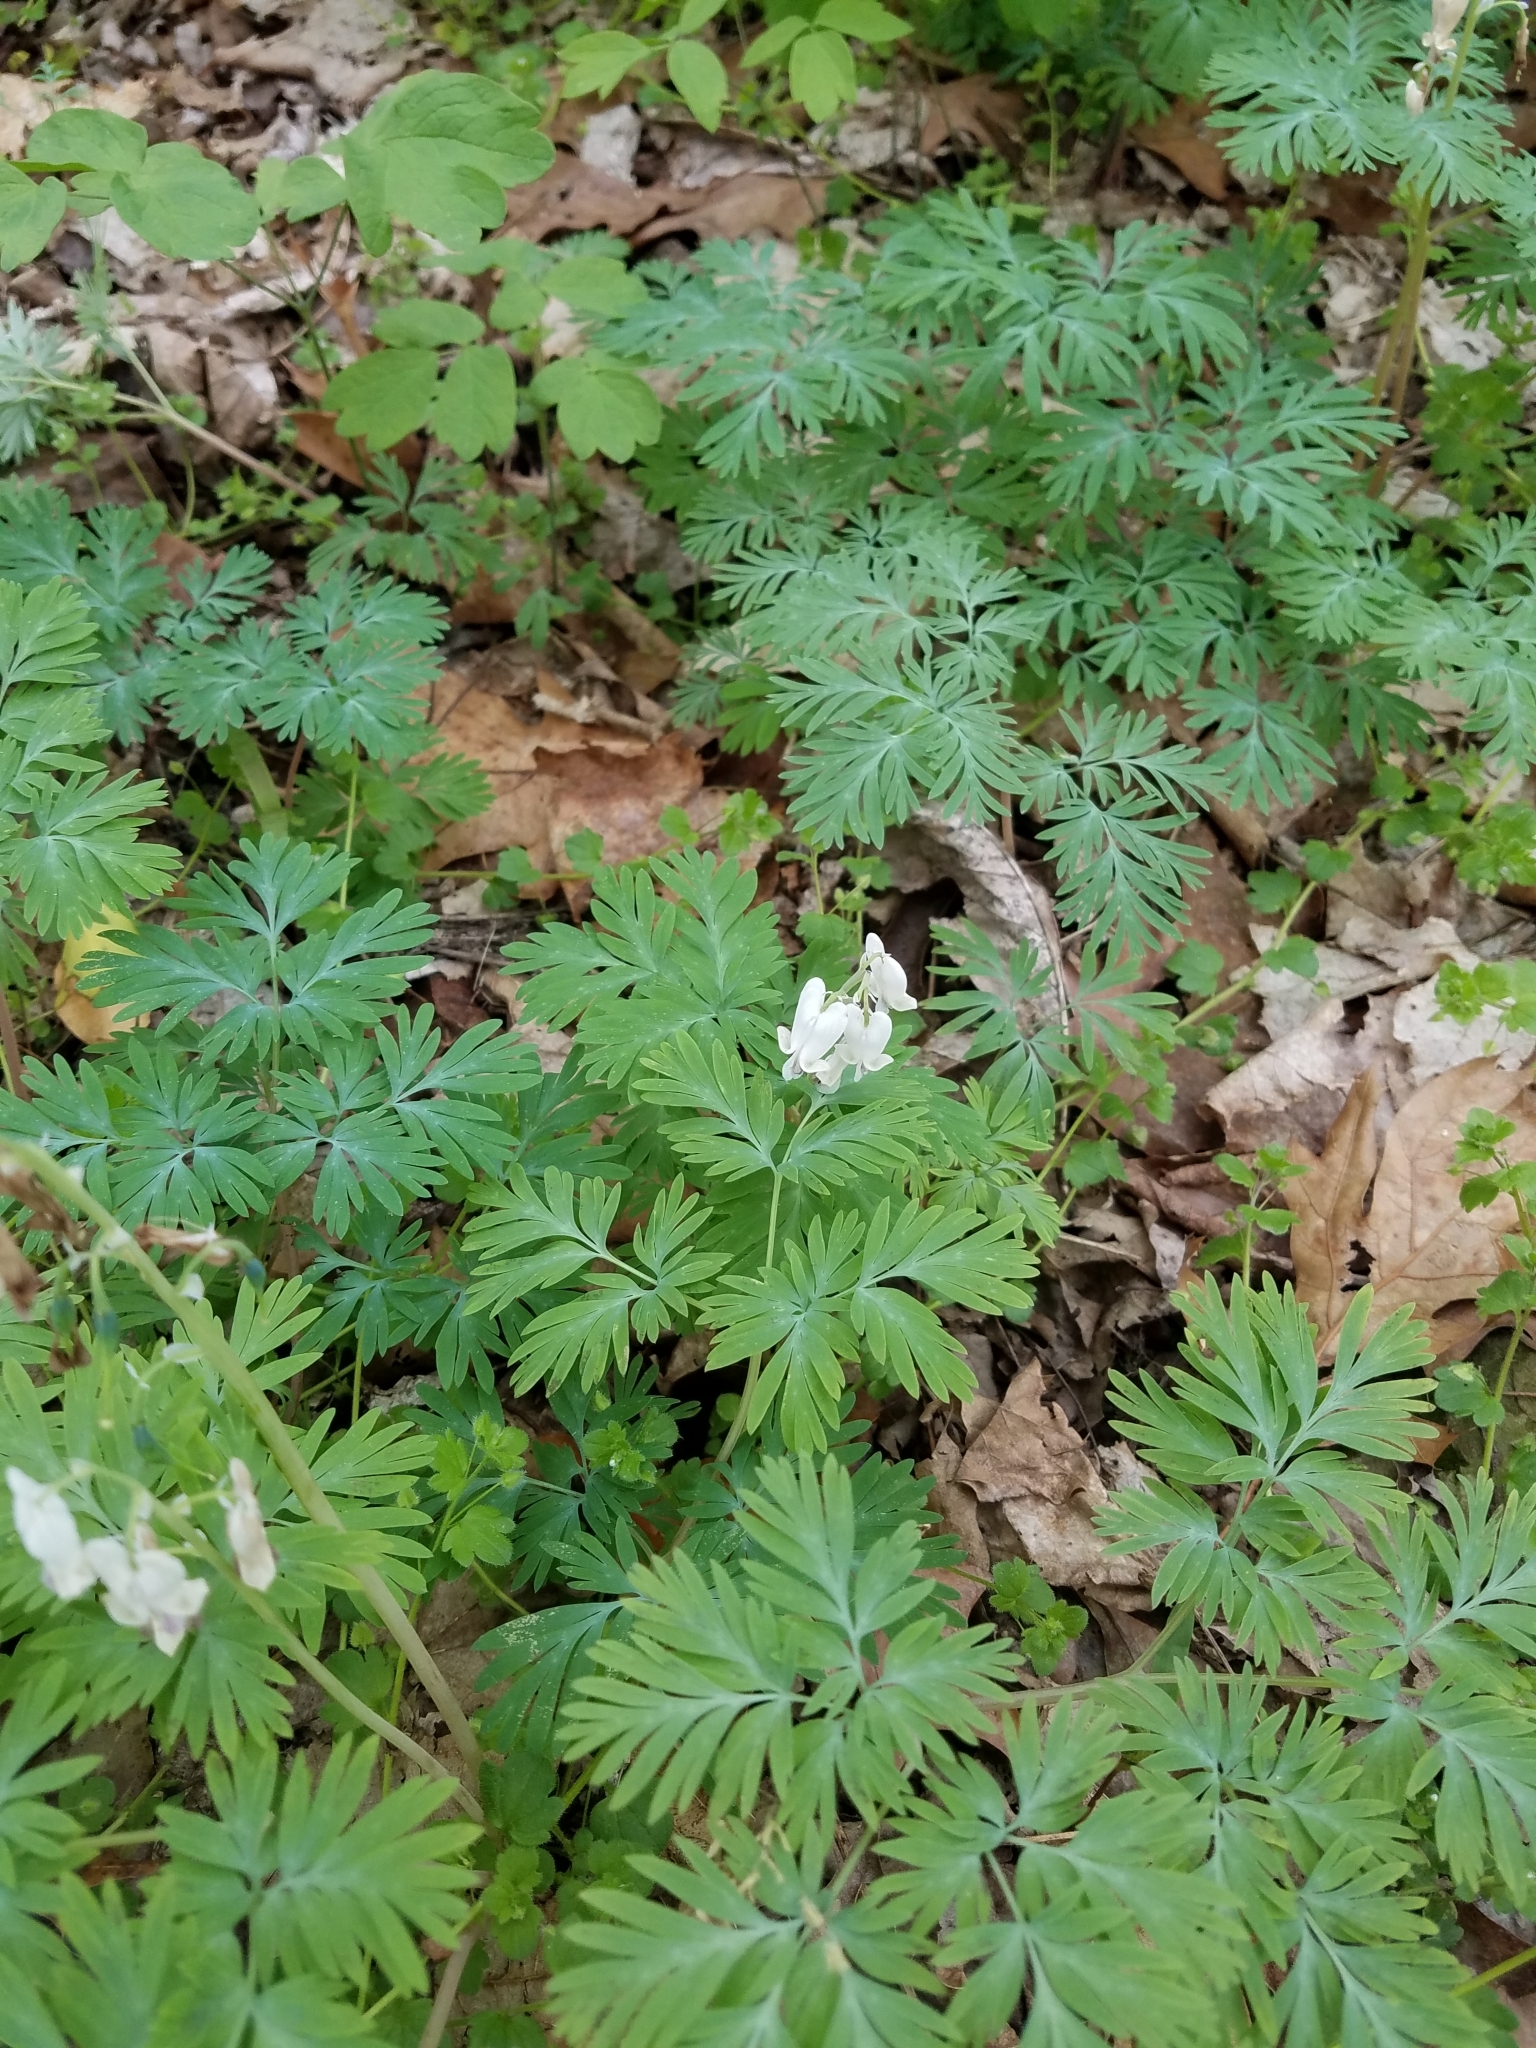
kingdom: Plantae
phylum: Tracheophyta
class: Magnoliopsida
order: Ranunculales
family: Papaveraceae
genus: Dicentra
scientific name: Dicentra canadensis
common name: Squirrel-corn
